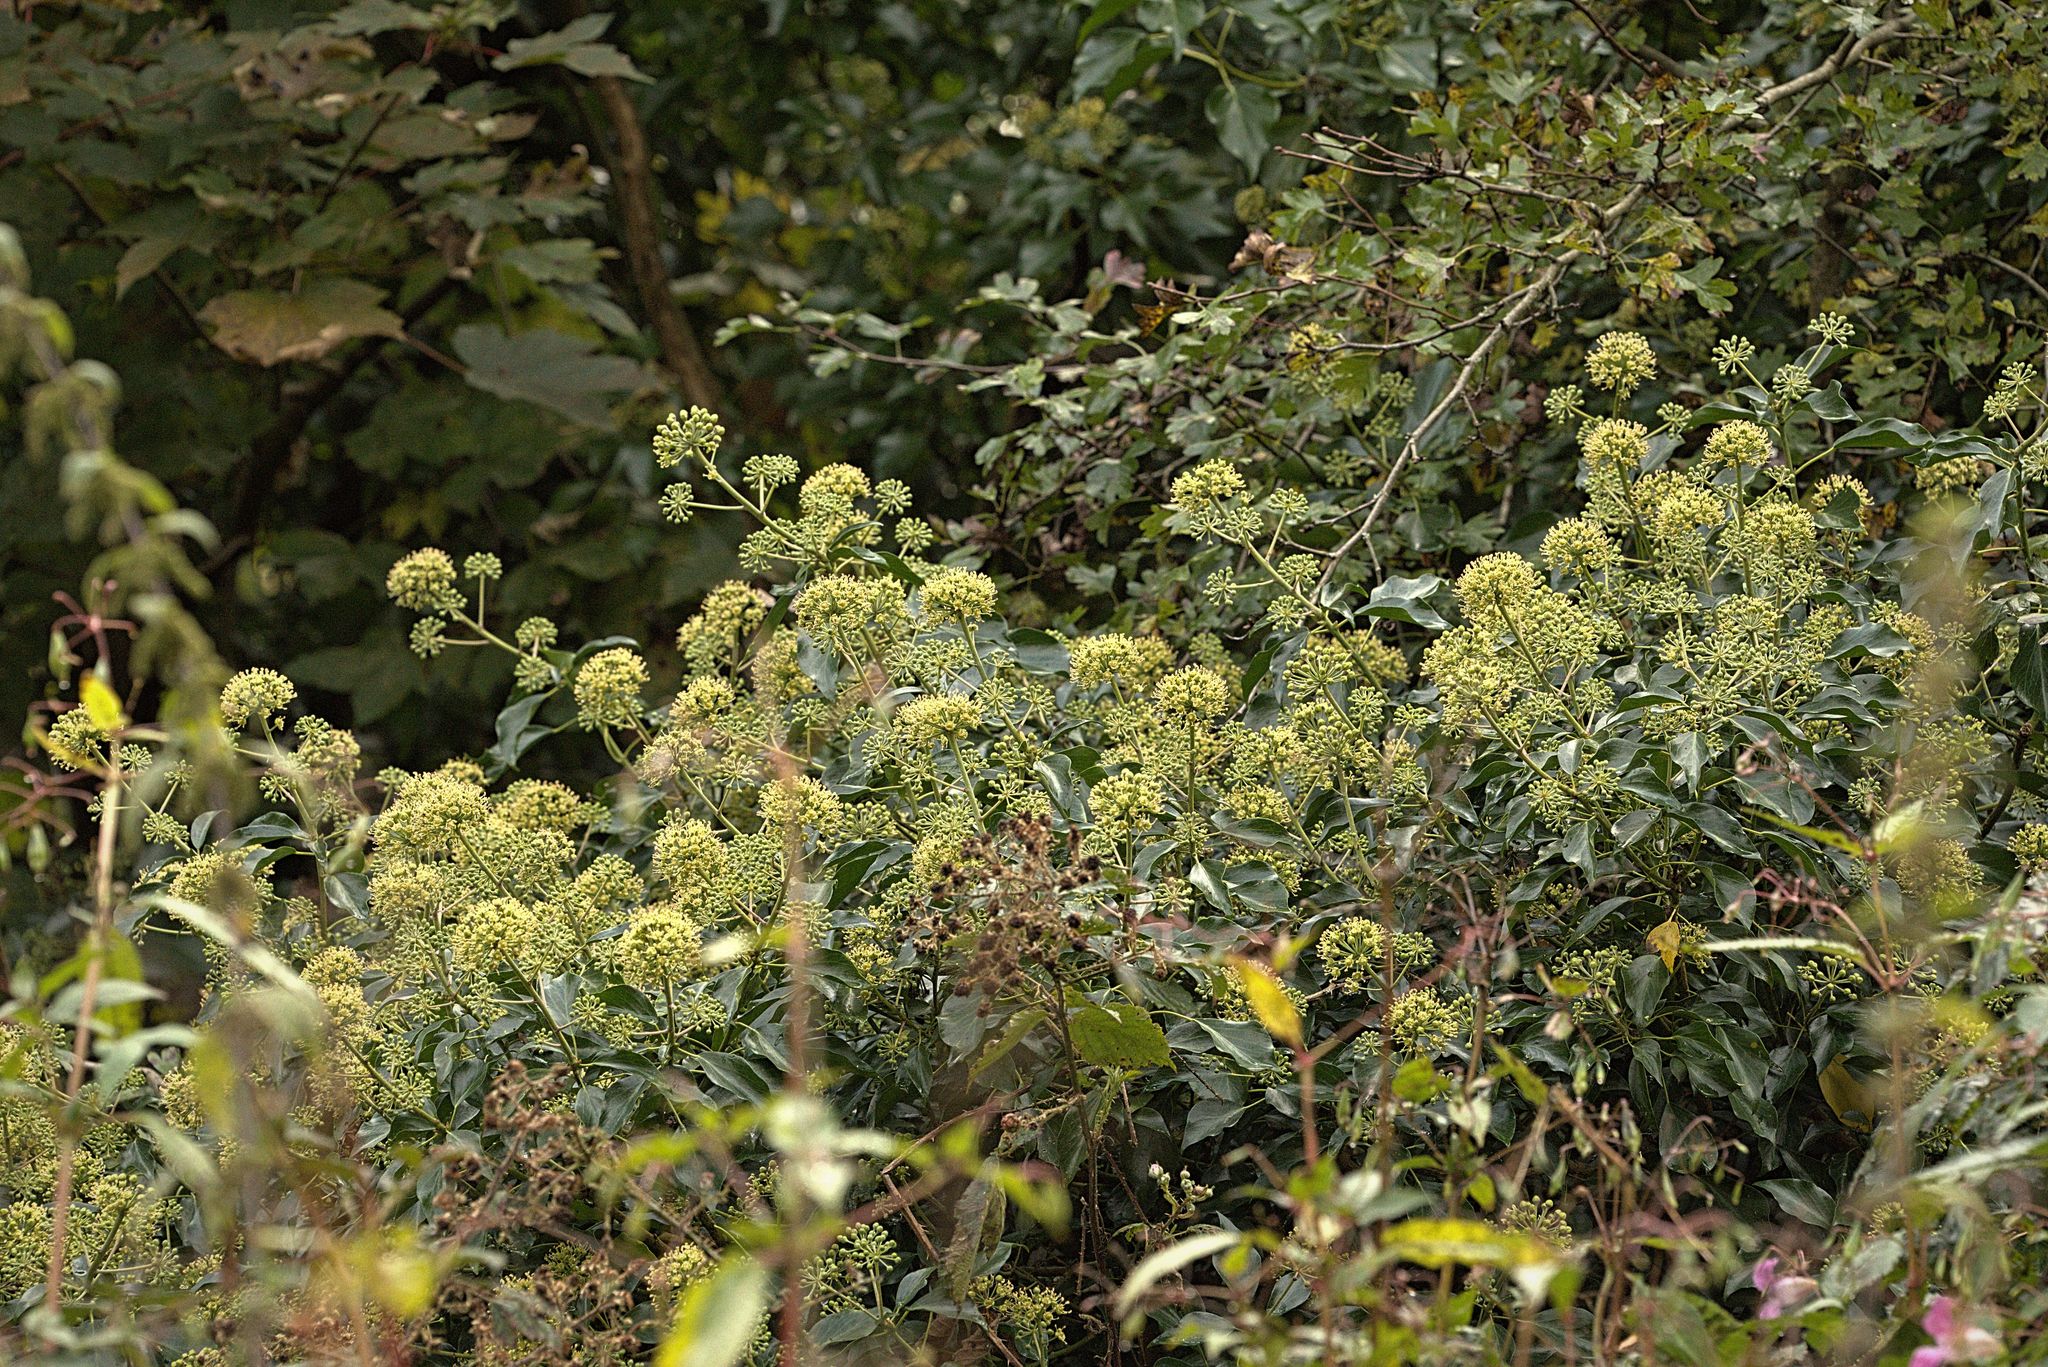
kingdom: Plantae
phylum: Tracheophyta
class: Magnoliopsida
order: Apiales
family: Araliaceae
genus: Hedera
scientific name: Hedera helix
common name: Ivy
